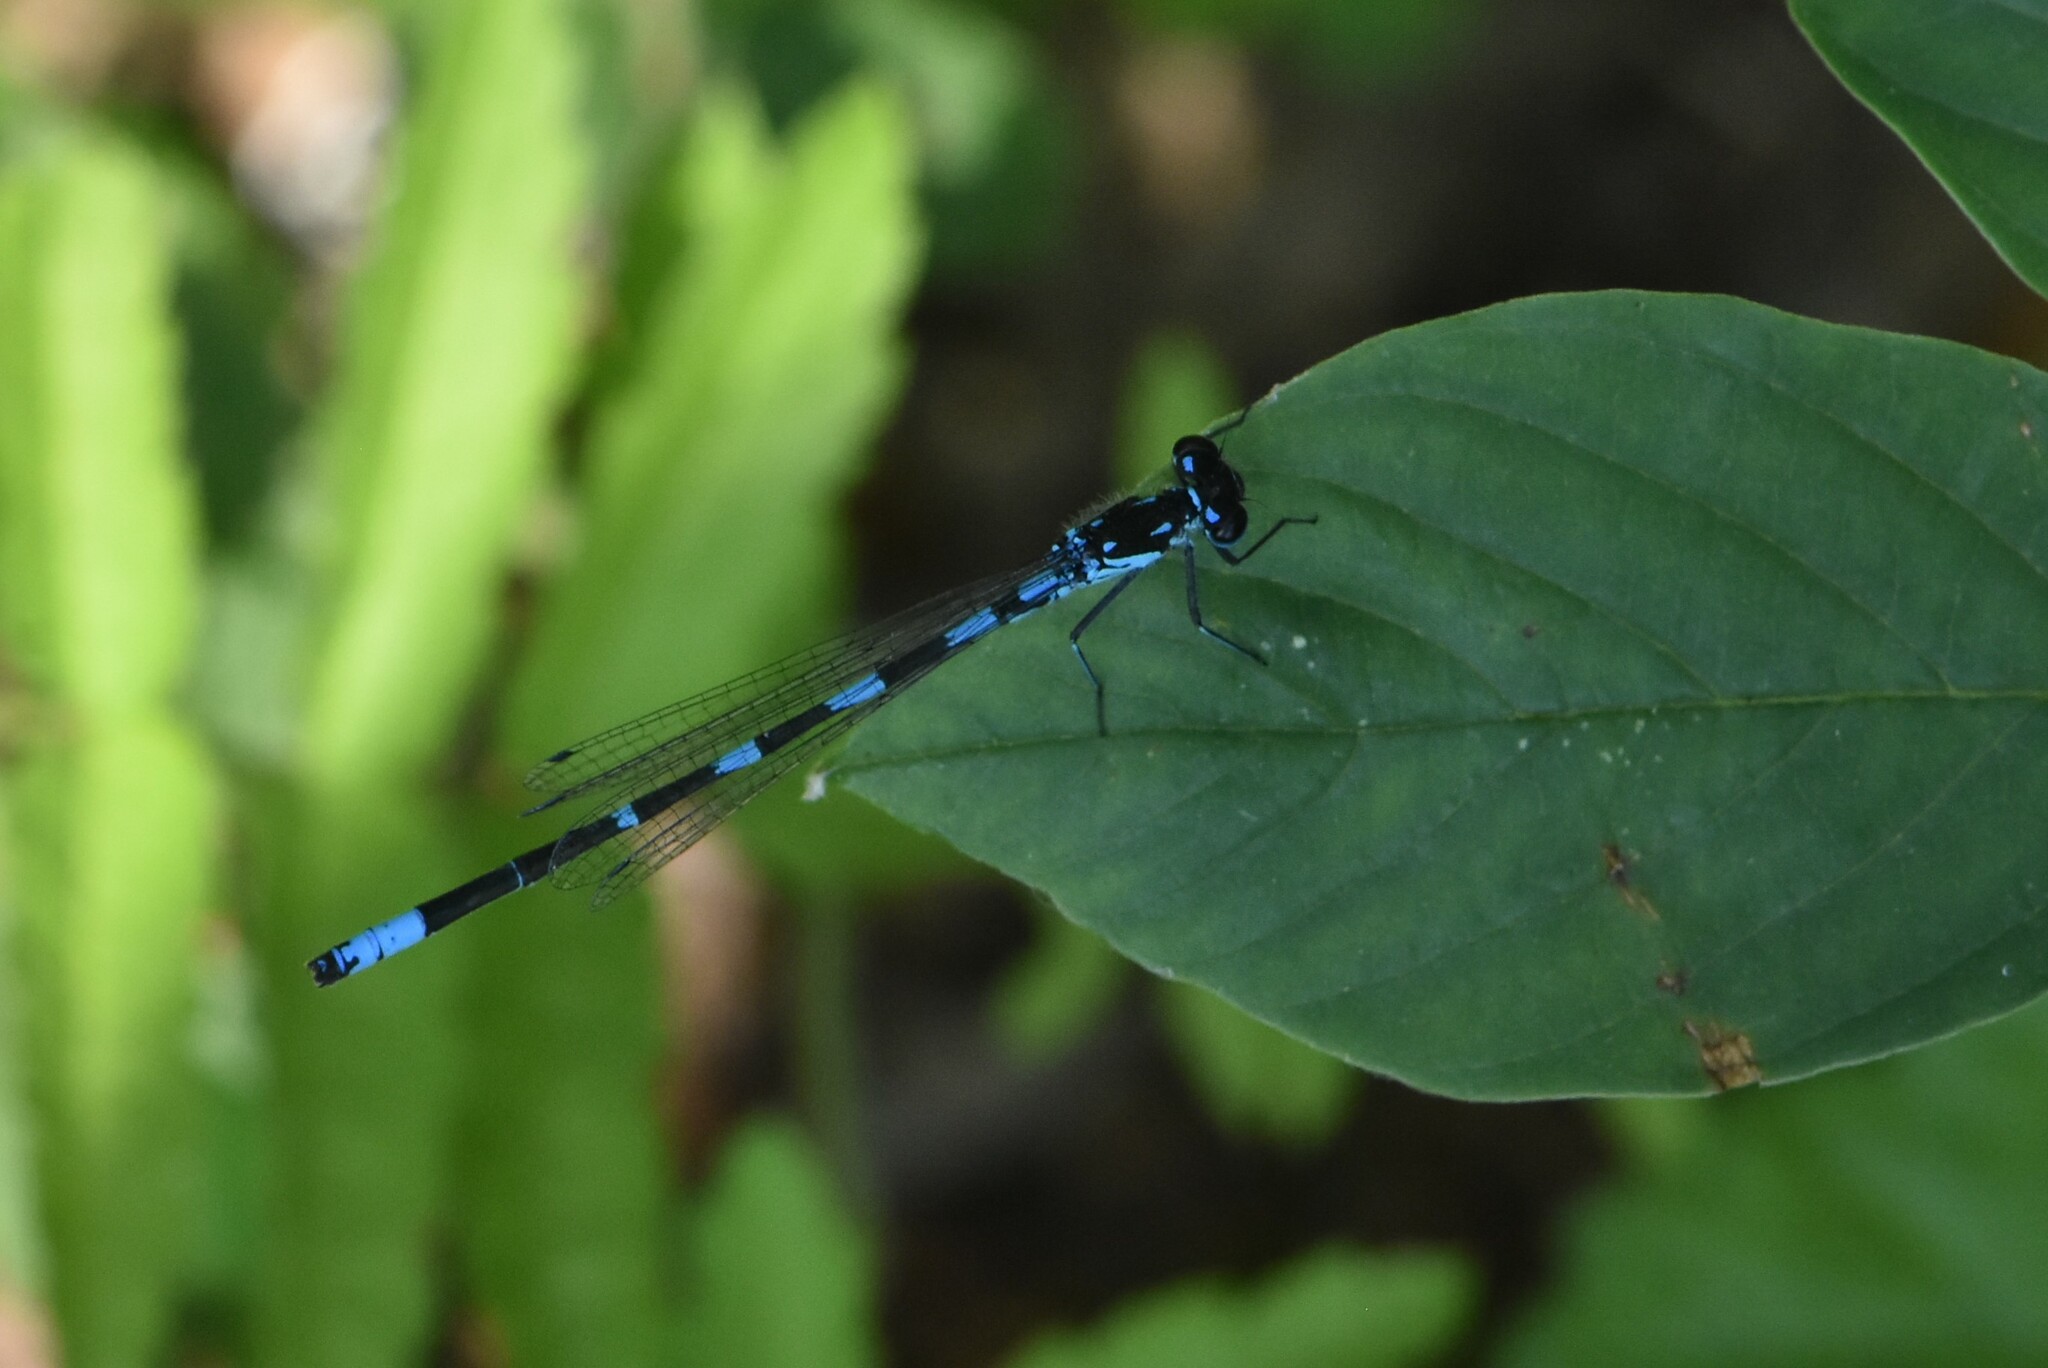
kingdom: Animalia
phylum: Arthropoda
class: Insecta
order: Odonata
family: Coenagrionidae
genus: Coenagrion
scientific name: Coenagrion pulchellum
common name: Variable bluet
